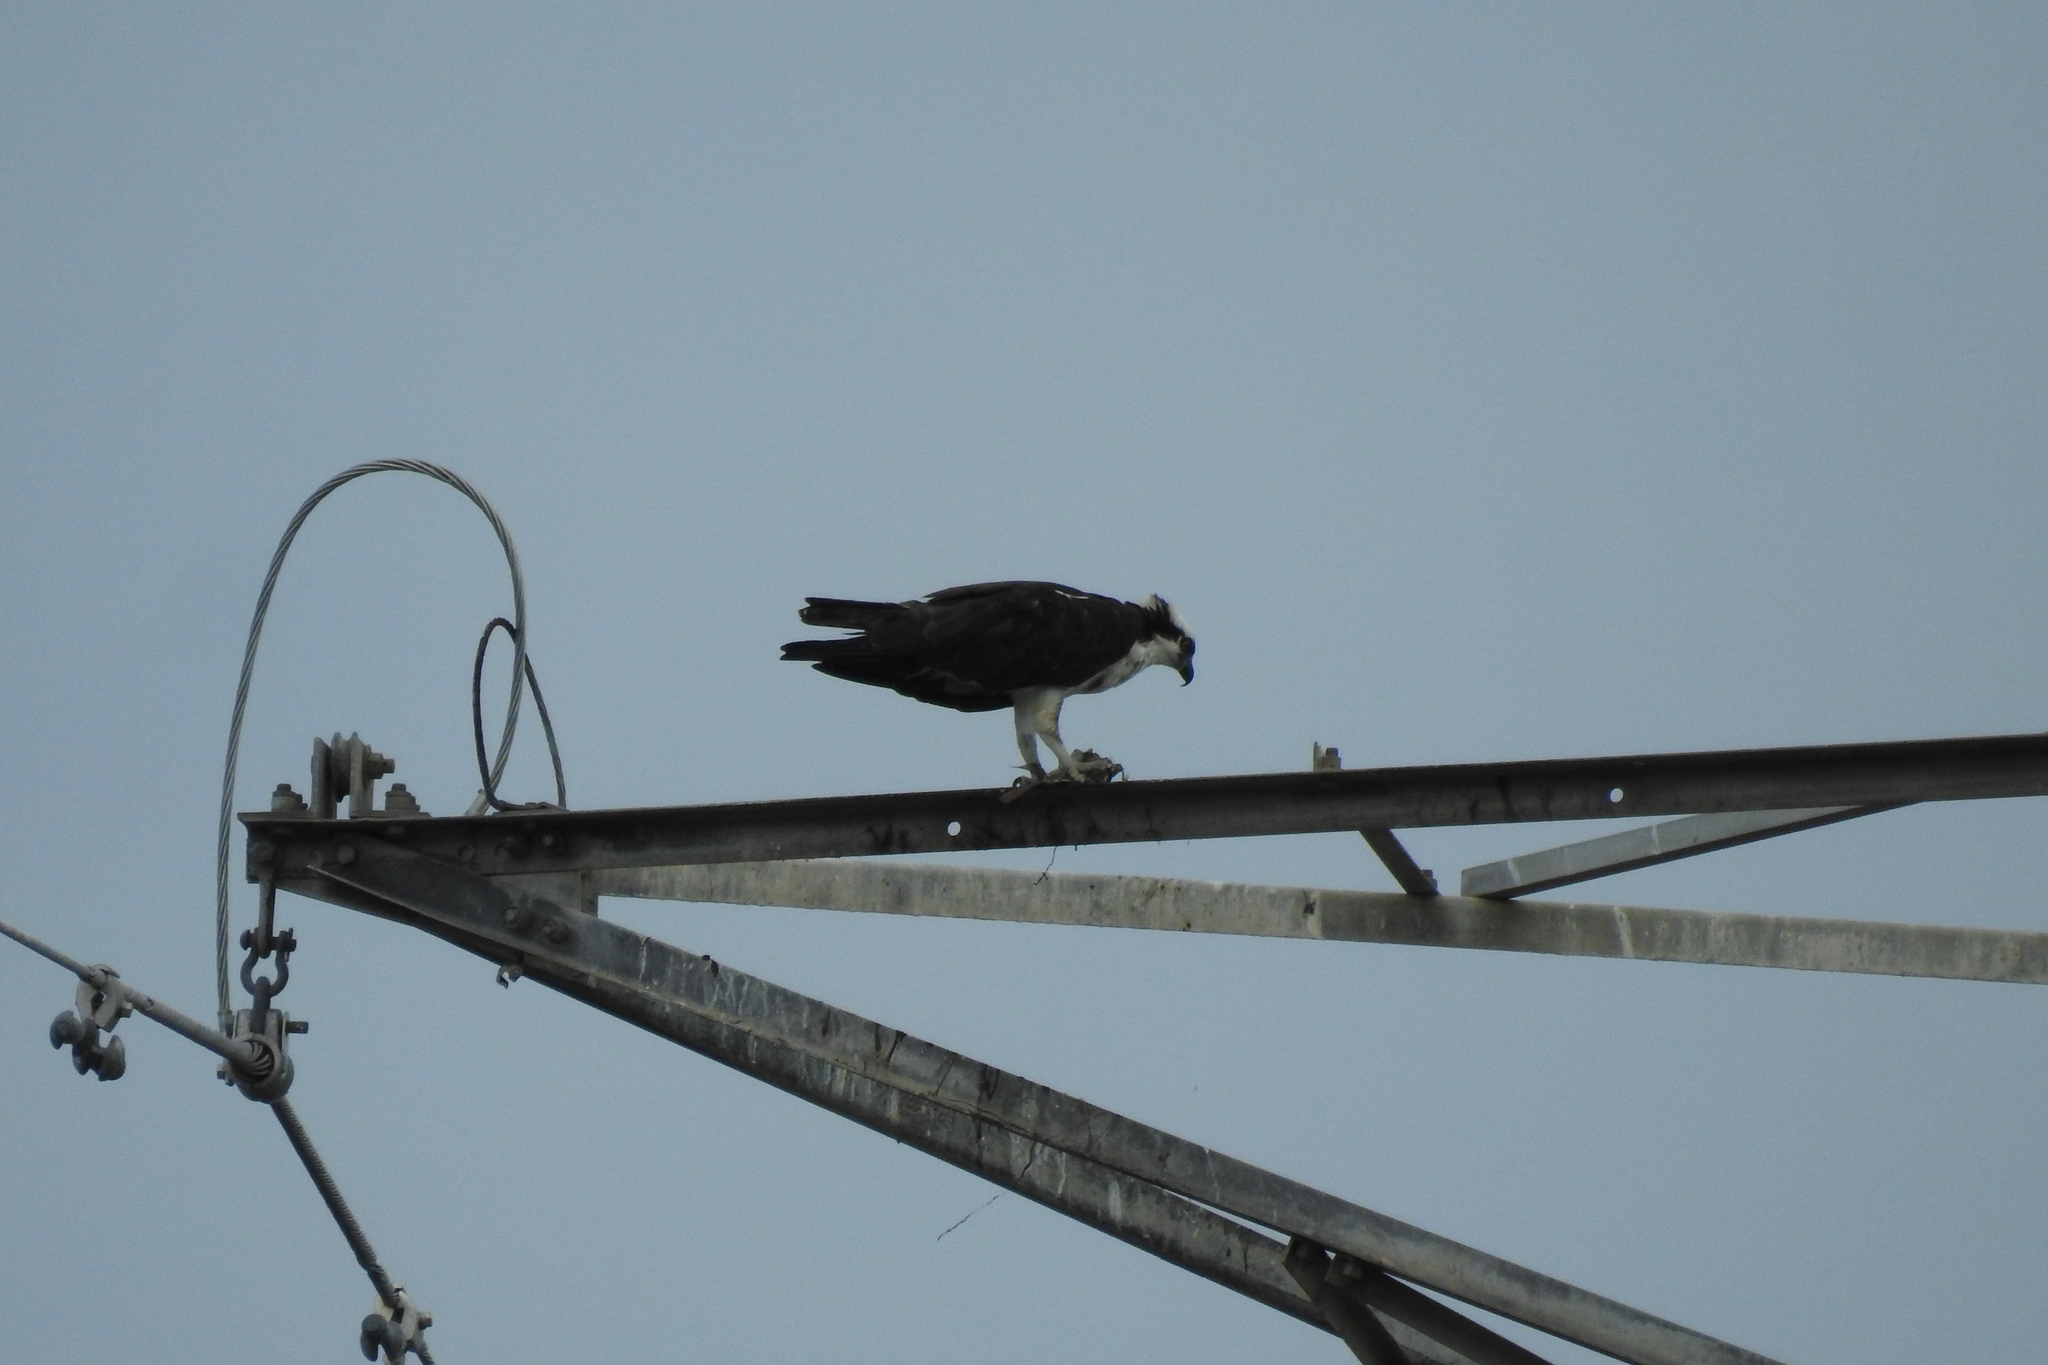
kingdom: Animalia
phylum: Chordata
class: Aves
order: Accipitriformes
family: Pandionidae
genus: Pandion
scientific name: Pandion haliaetus
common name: Osprey
